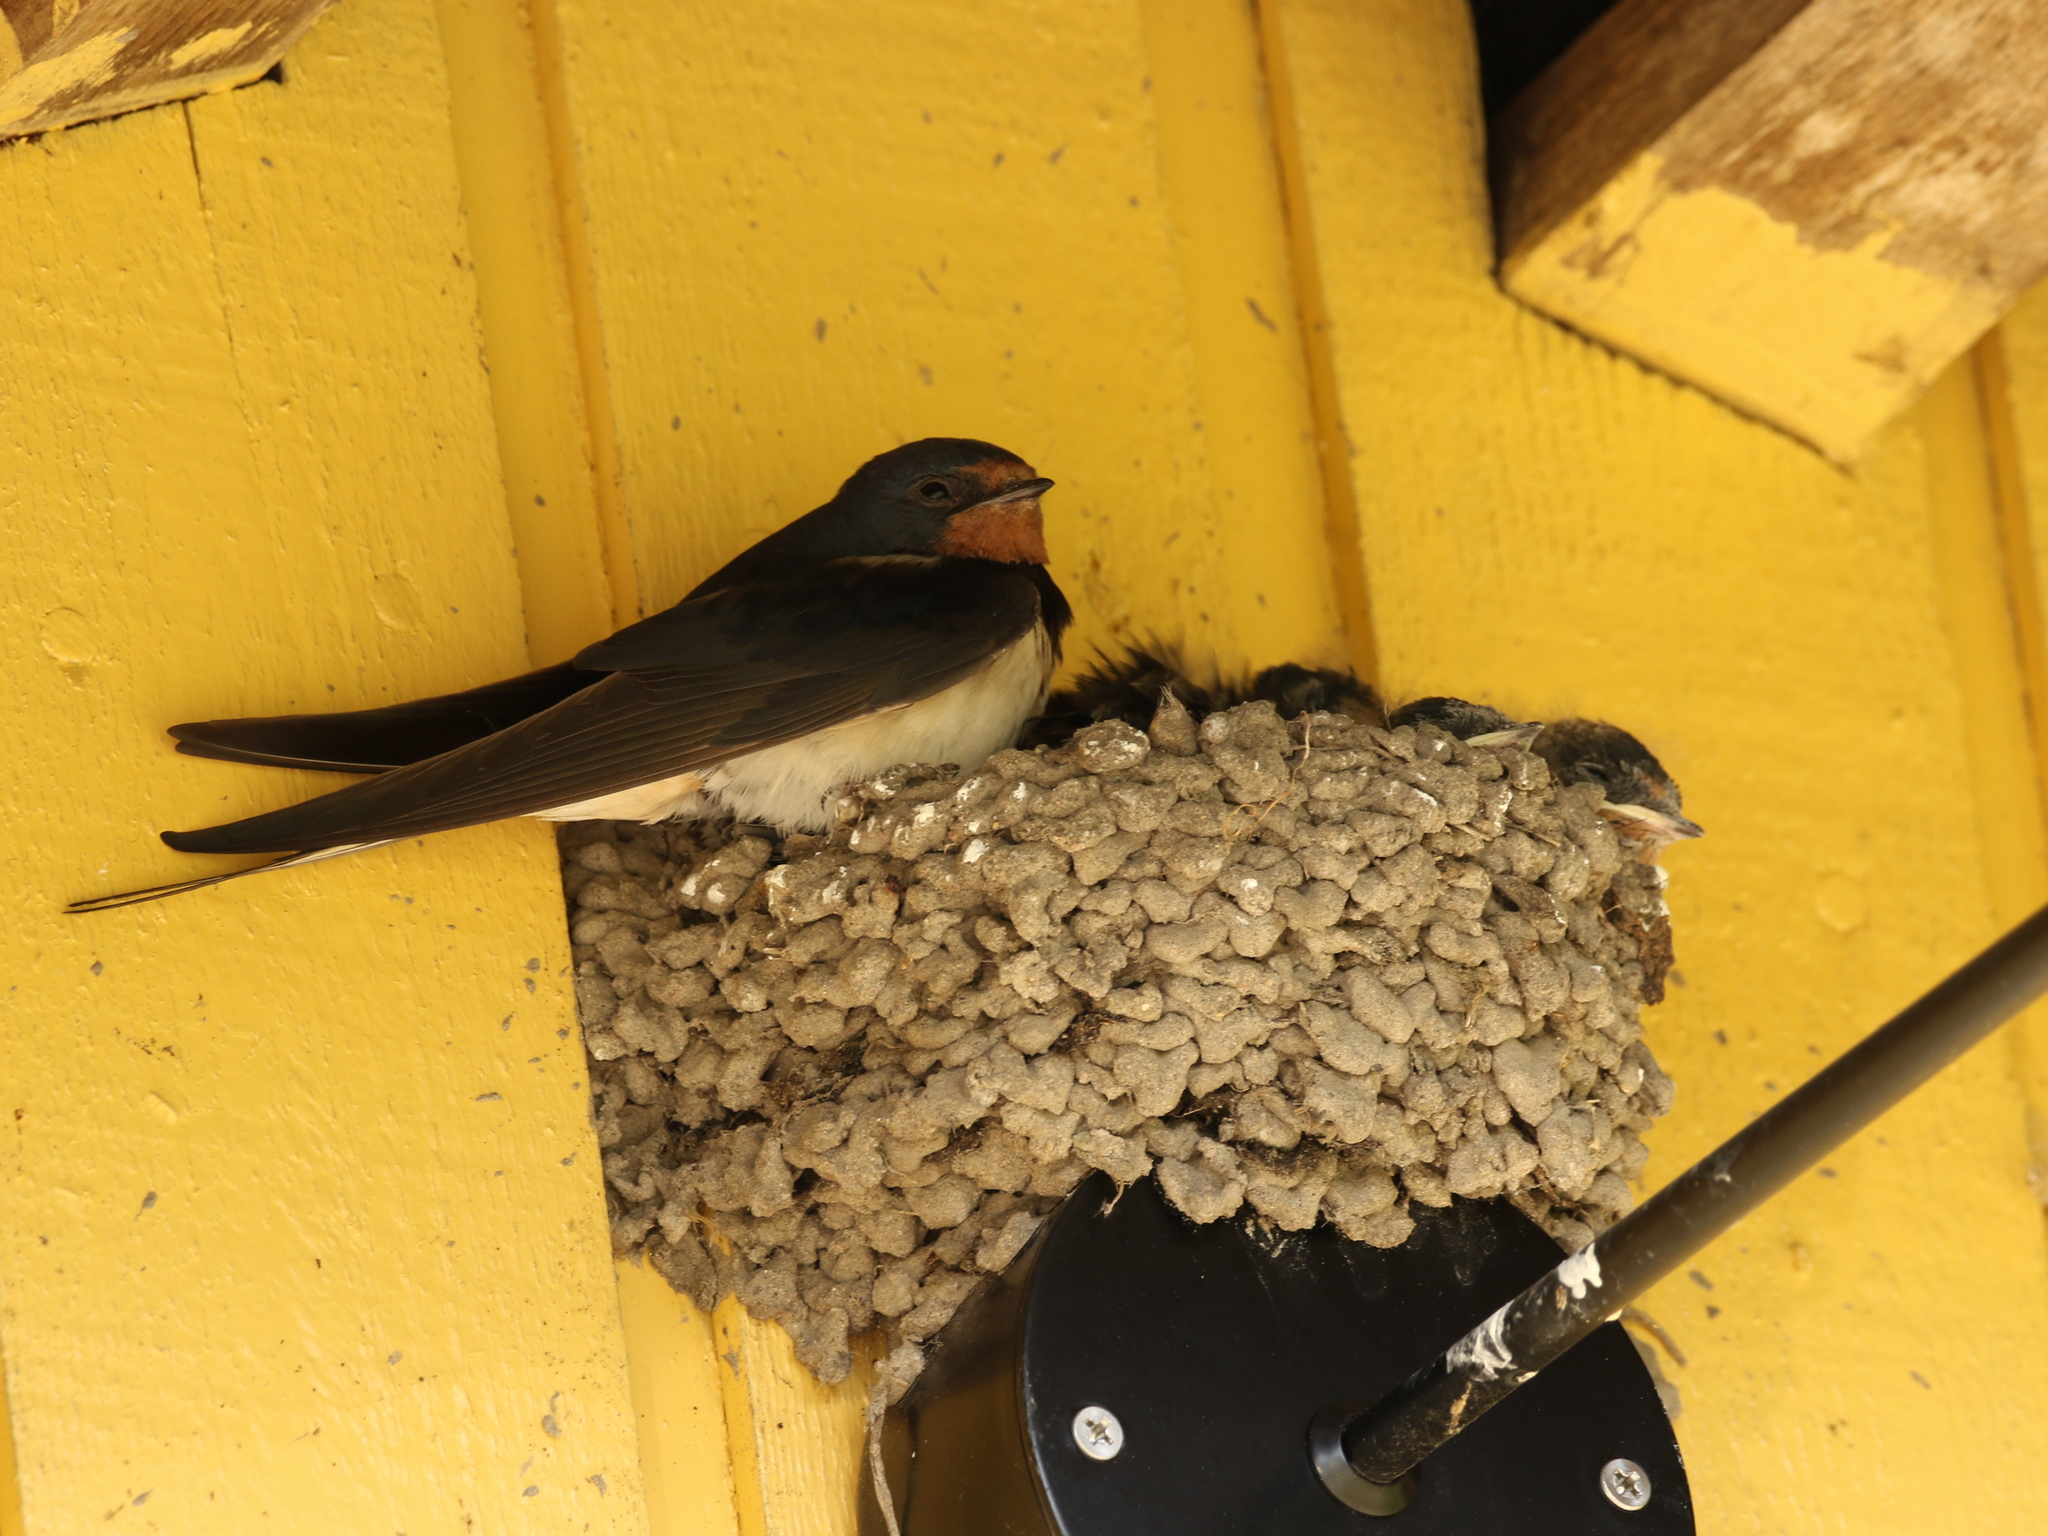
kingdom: Animalia
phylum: Chordata
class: Aves
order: Passeriformes
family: Hirundinidae
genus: Hirundo
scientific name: Hirundo rustica
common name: Barn swallow
